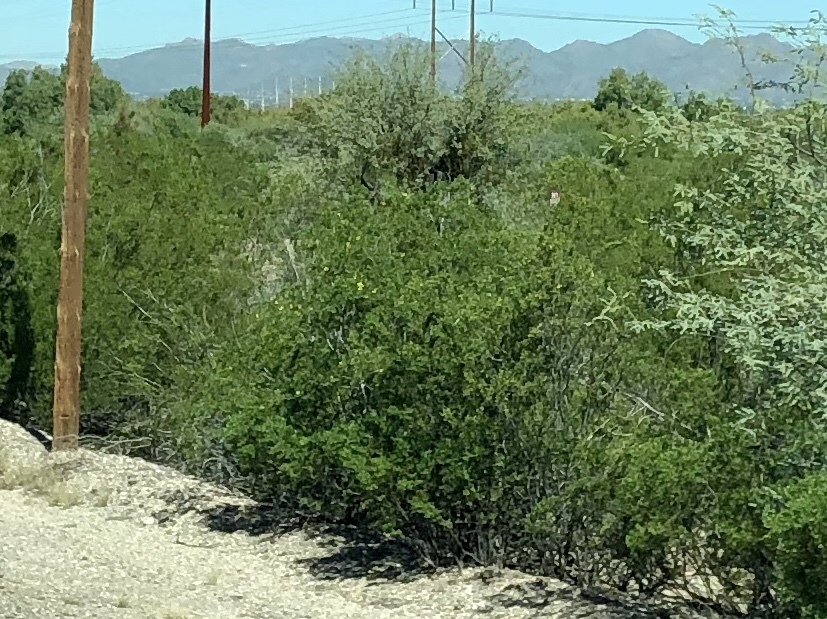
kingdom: Plantae
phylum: Tracheophyta
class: Magnoliopsida
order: Zygophyllales
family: Zygophyllaceae
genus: Larrea
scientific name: Larrea tridentata
